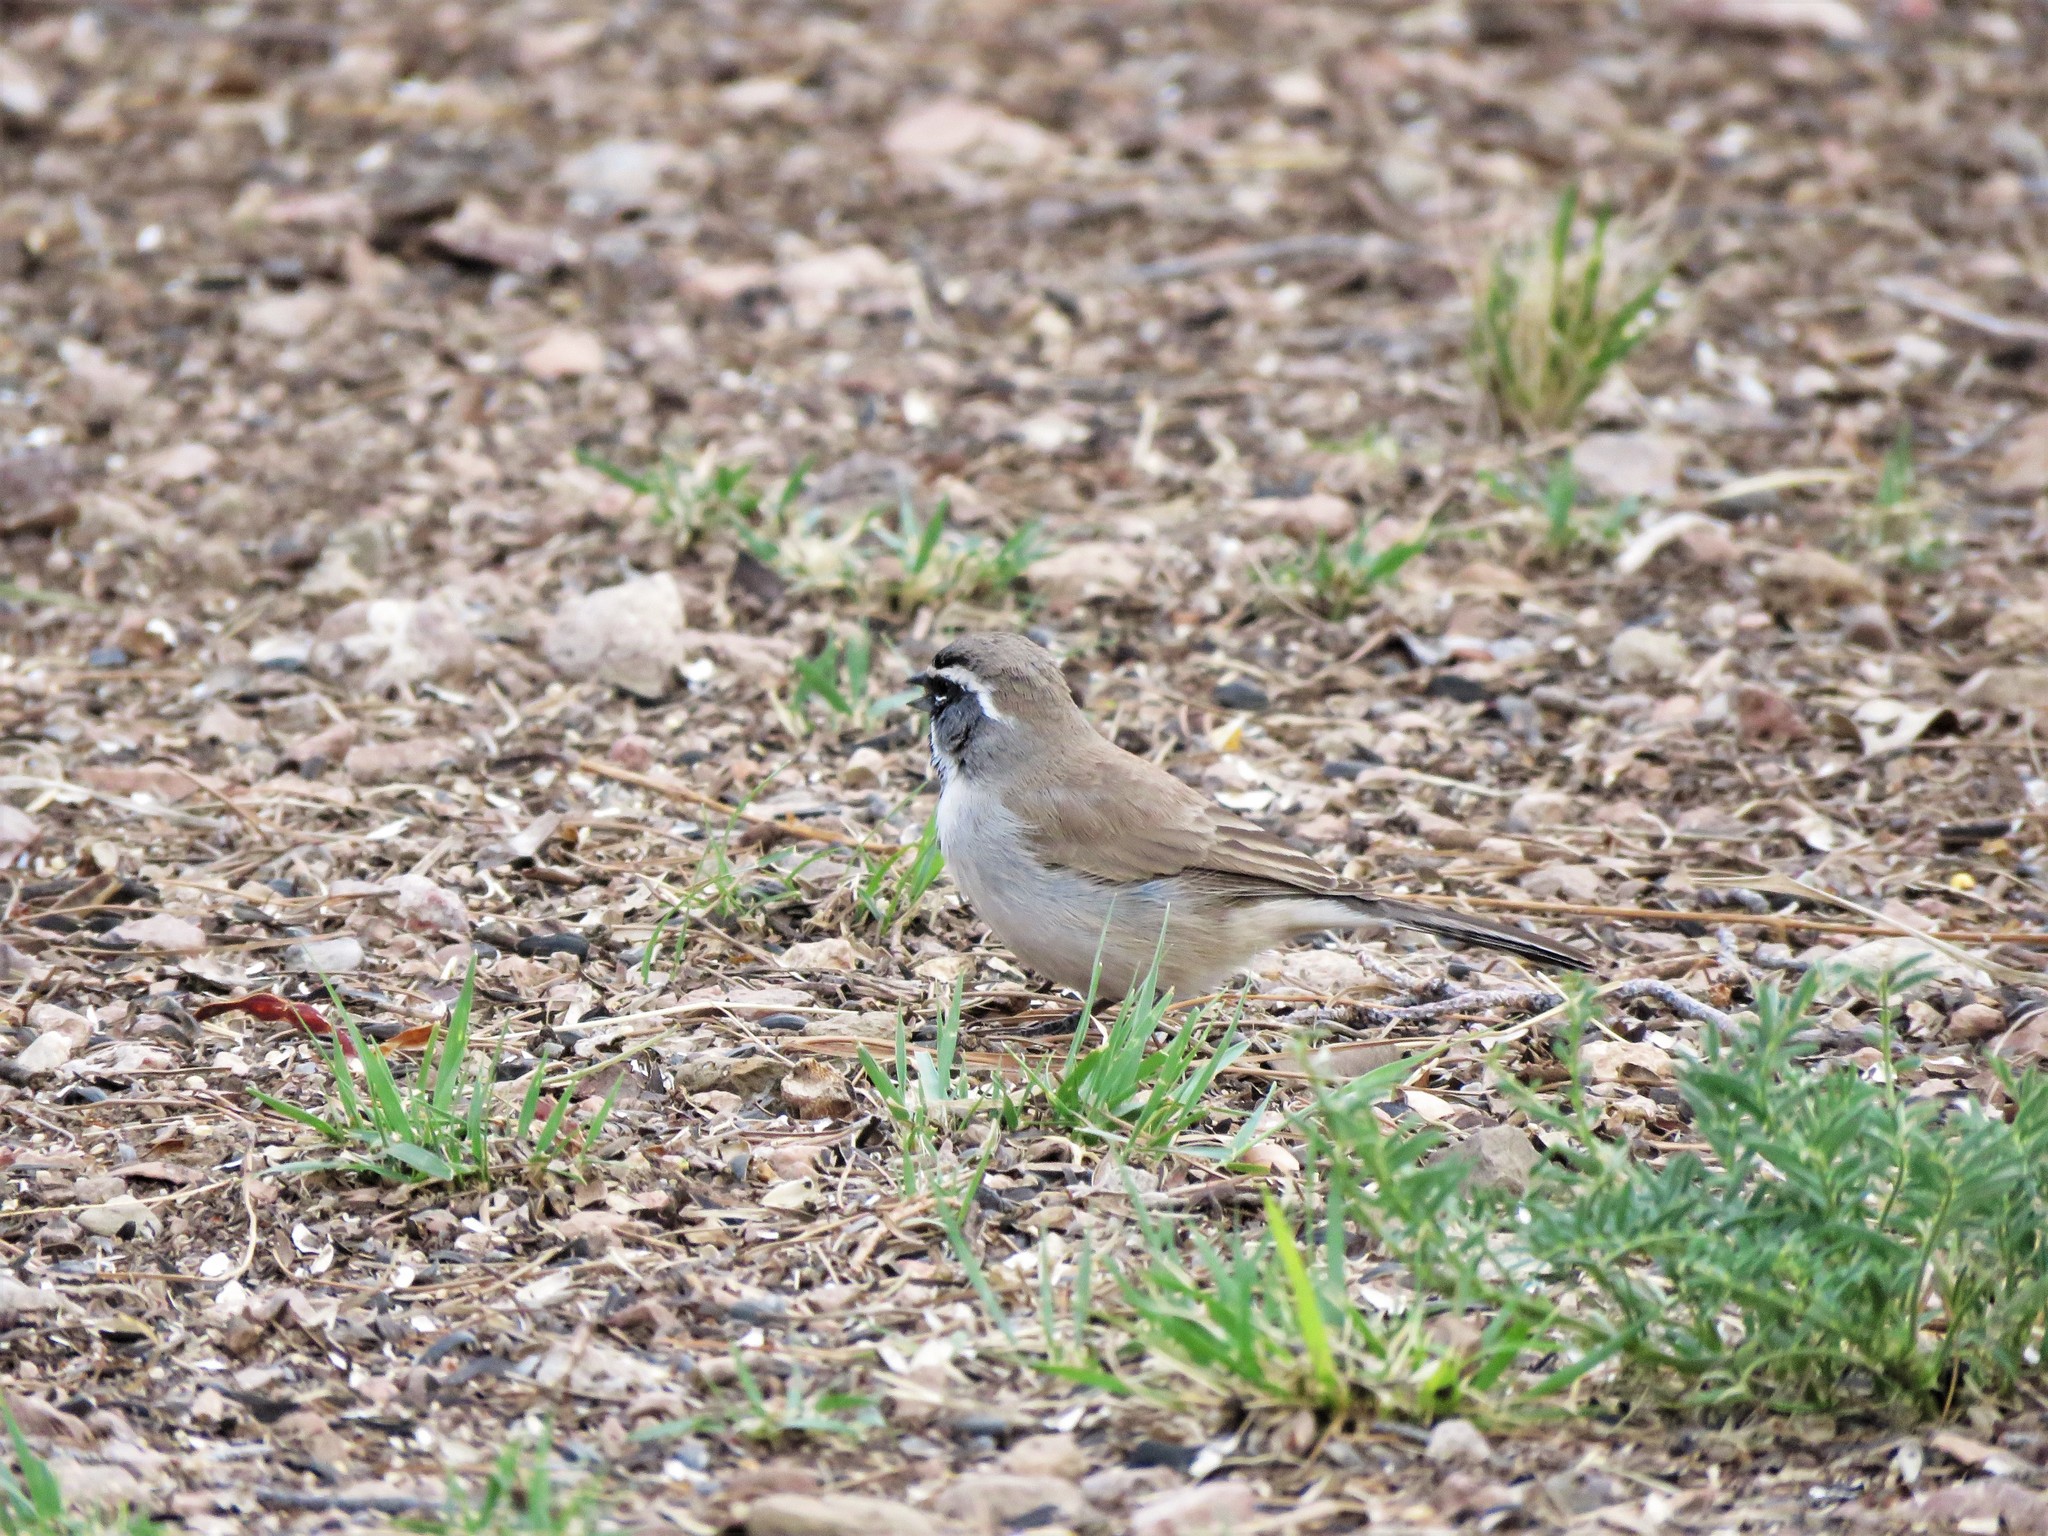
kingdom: Animalia
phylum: Chordata
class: Aves
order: Passeriformes
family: Passerellidae
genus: Amphispiza
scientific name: Amphispiza bilineata
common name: Black-throated sparrow
